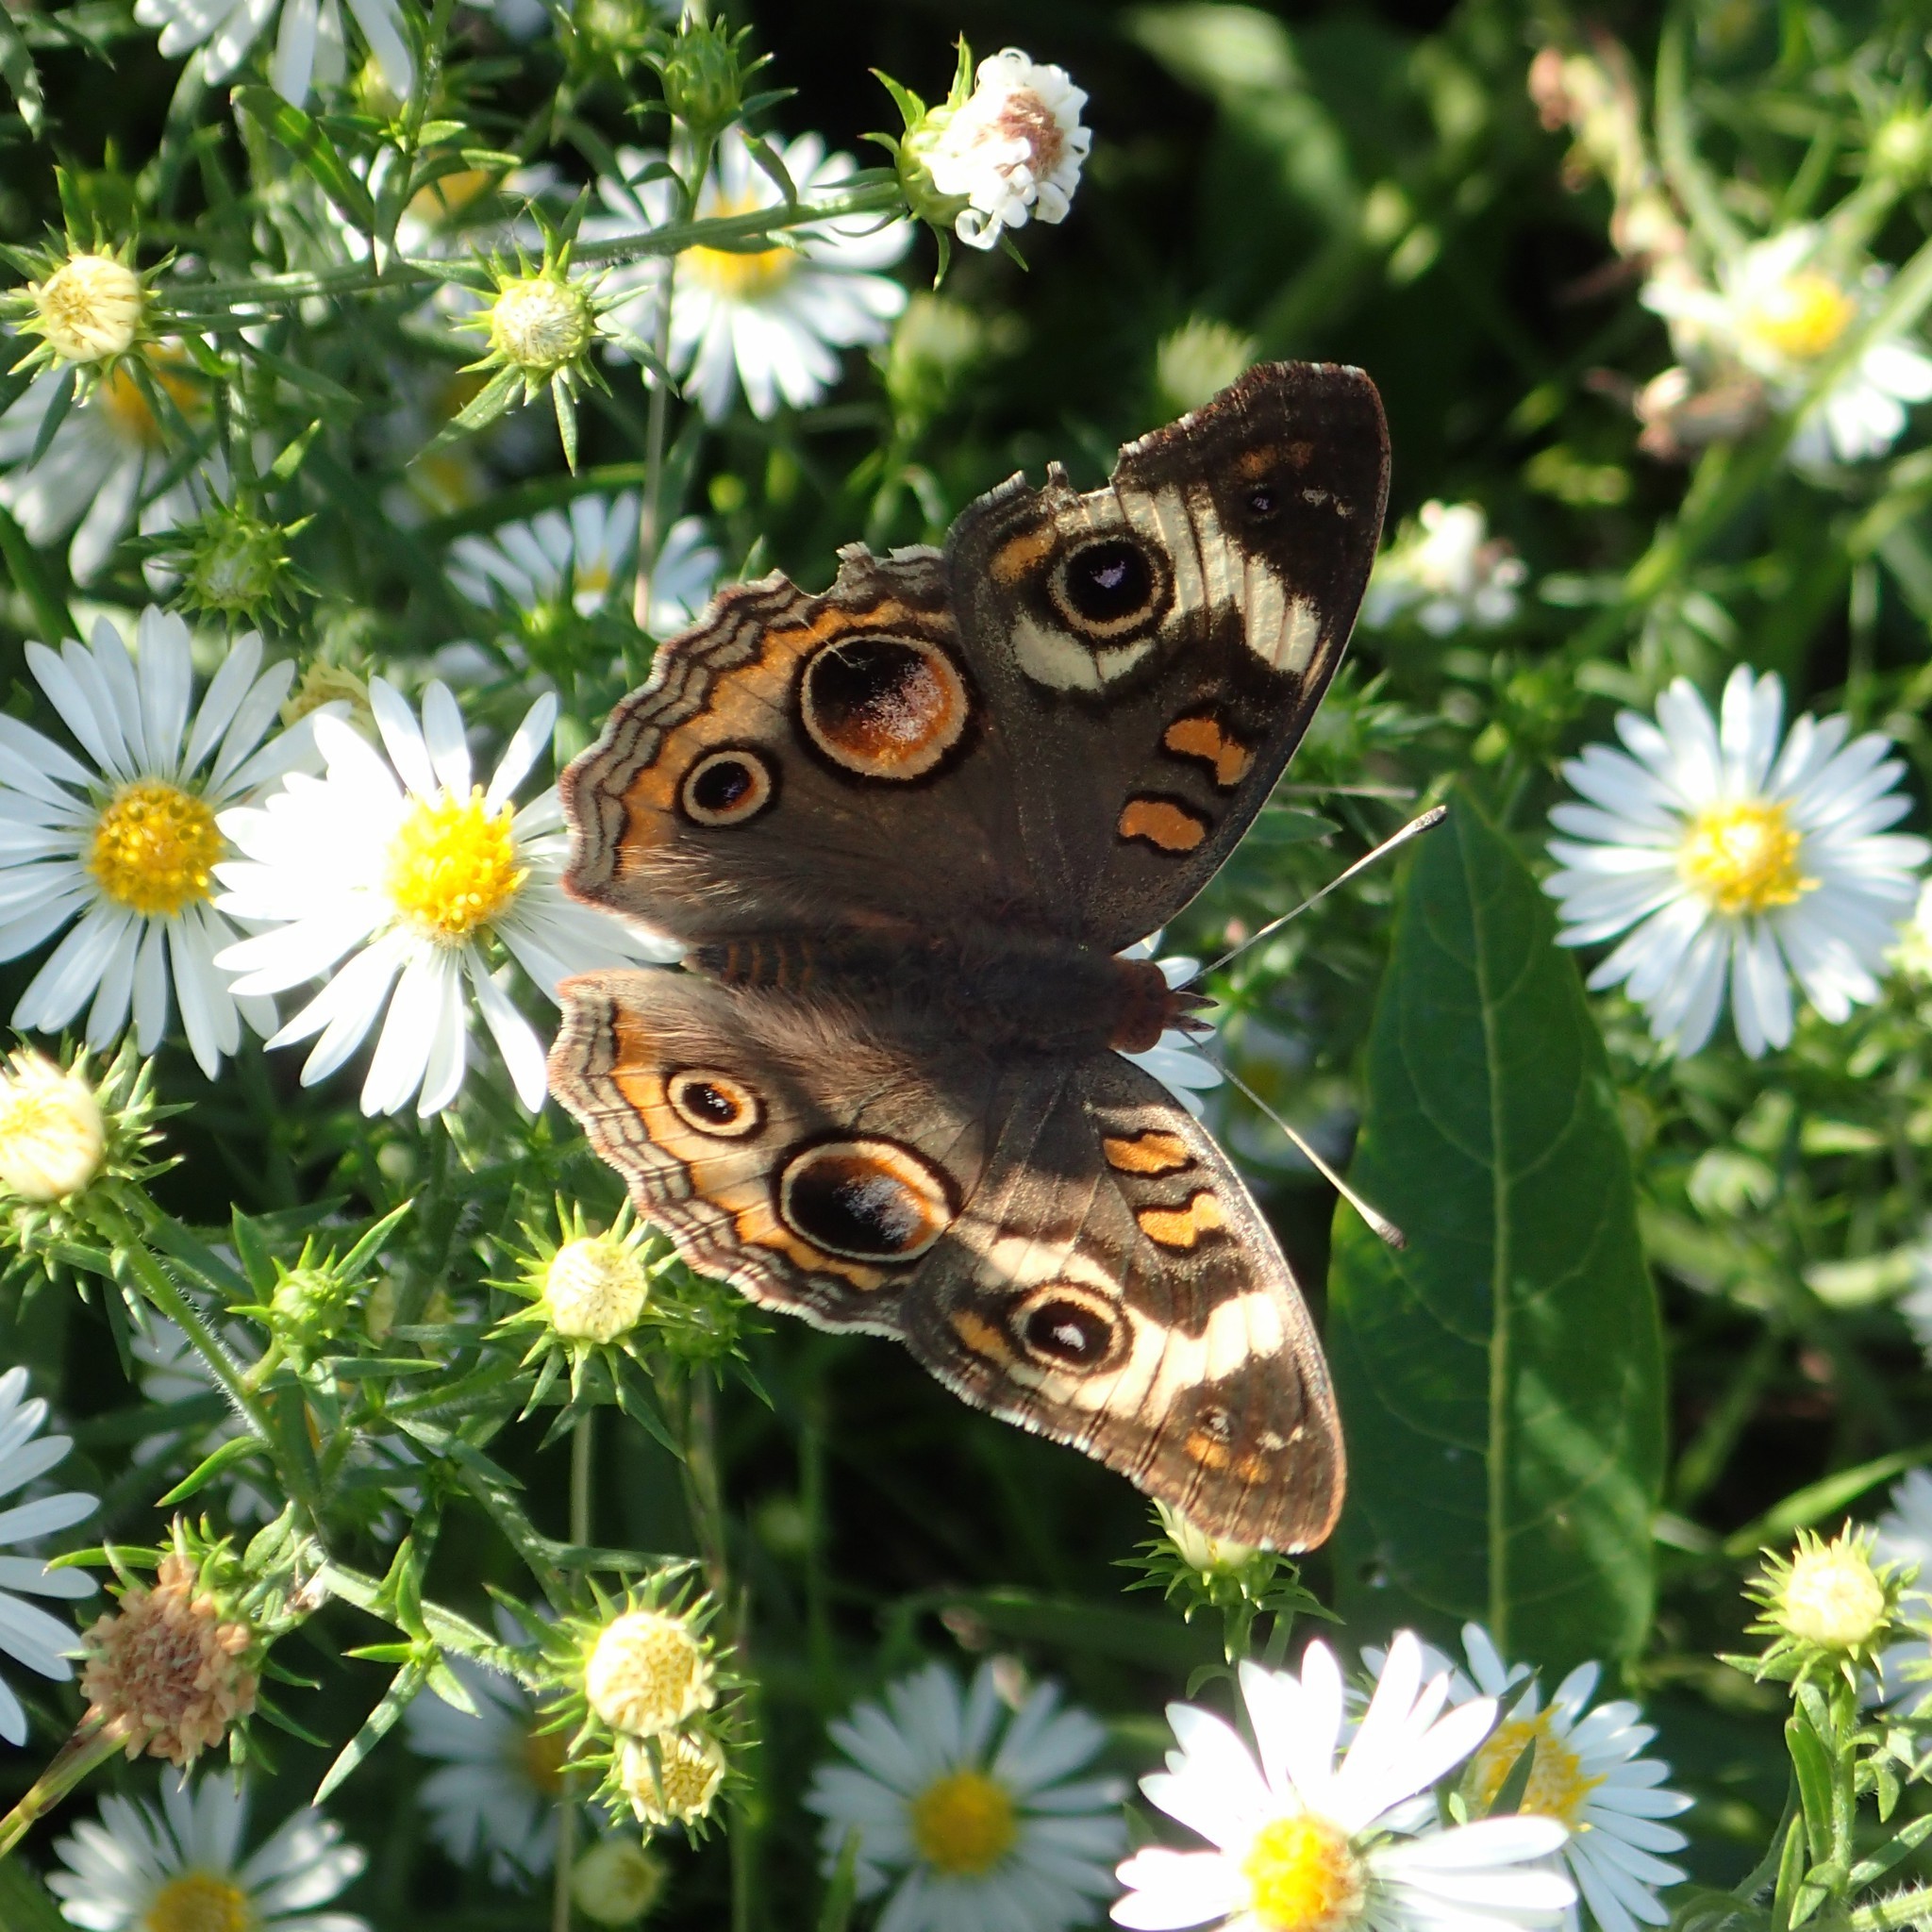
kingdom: Animalia
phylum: Arthropoda
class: Insecta
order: Lepidoptera
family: Nymphalidae
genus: Junonia
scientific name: Junonia coenia
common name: Common buckeye
